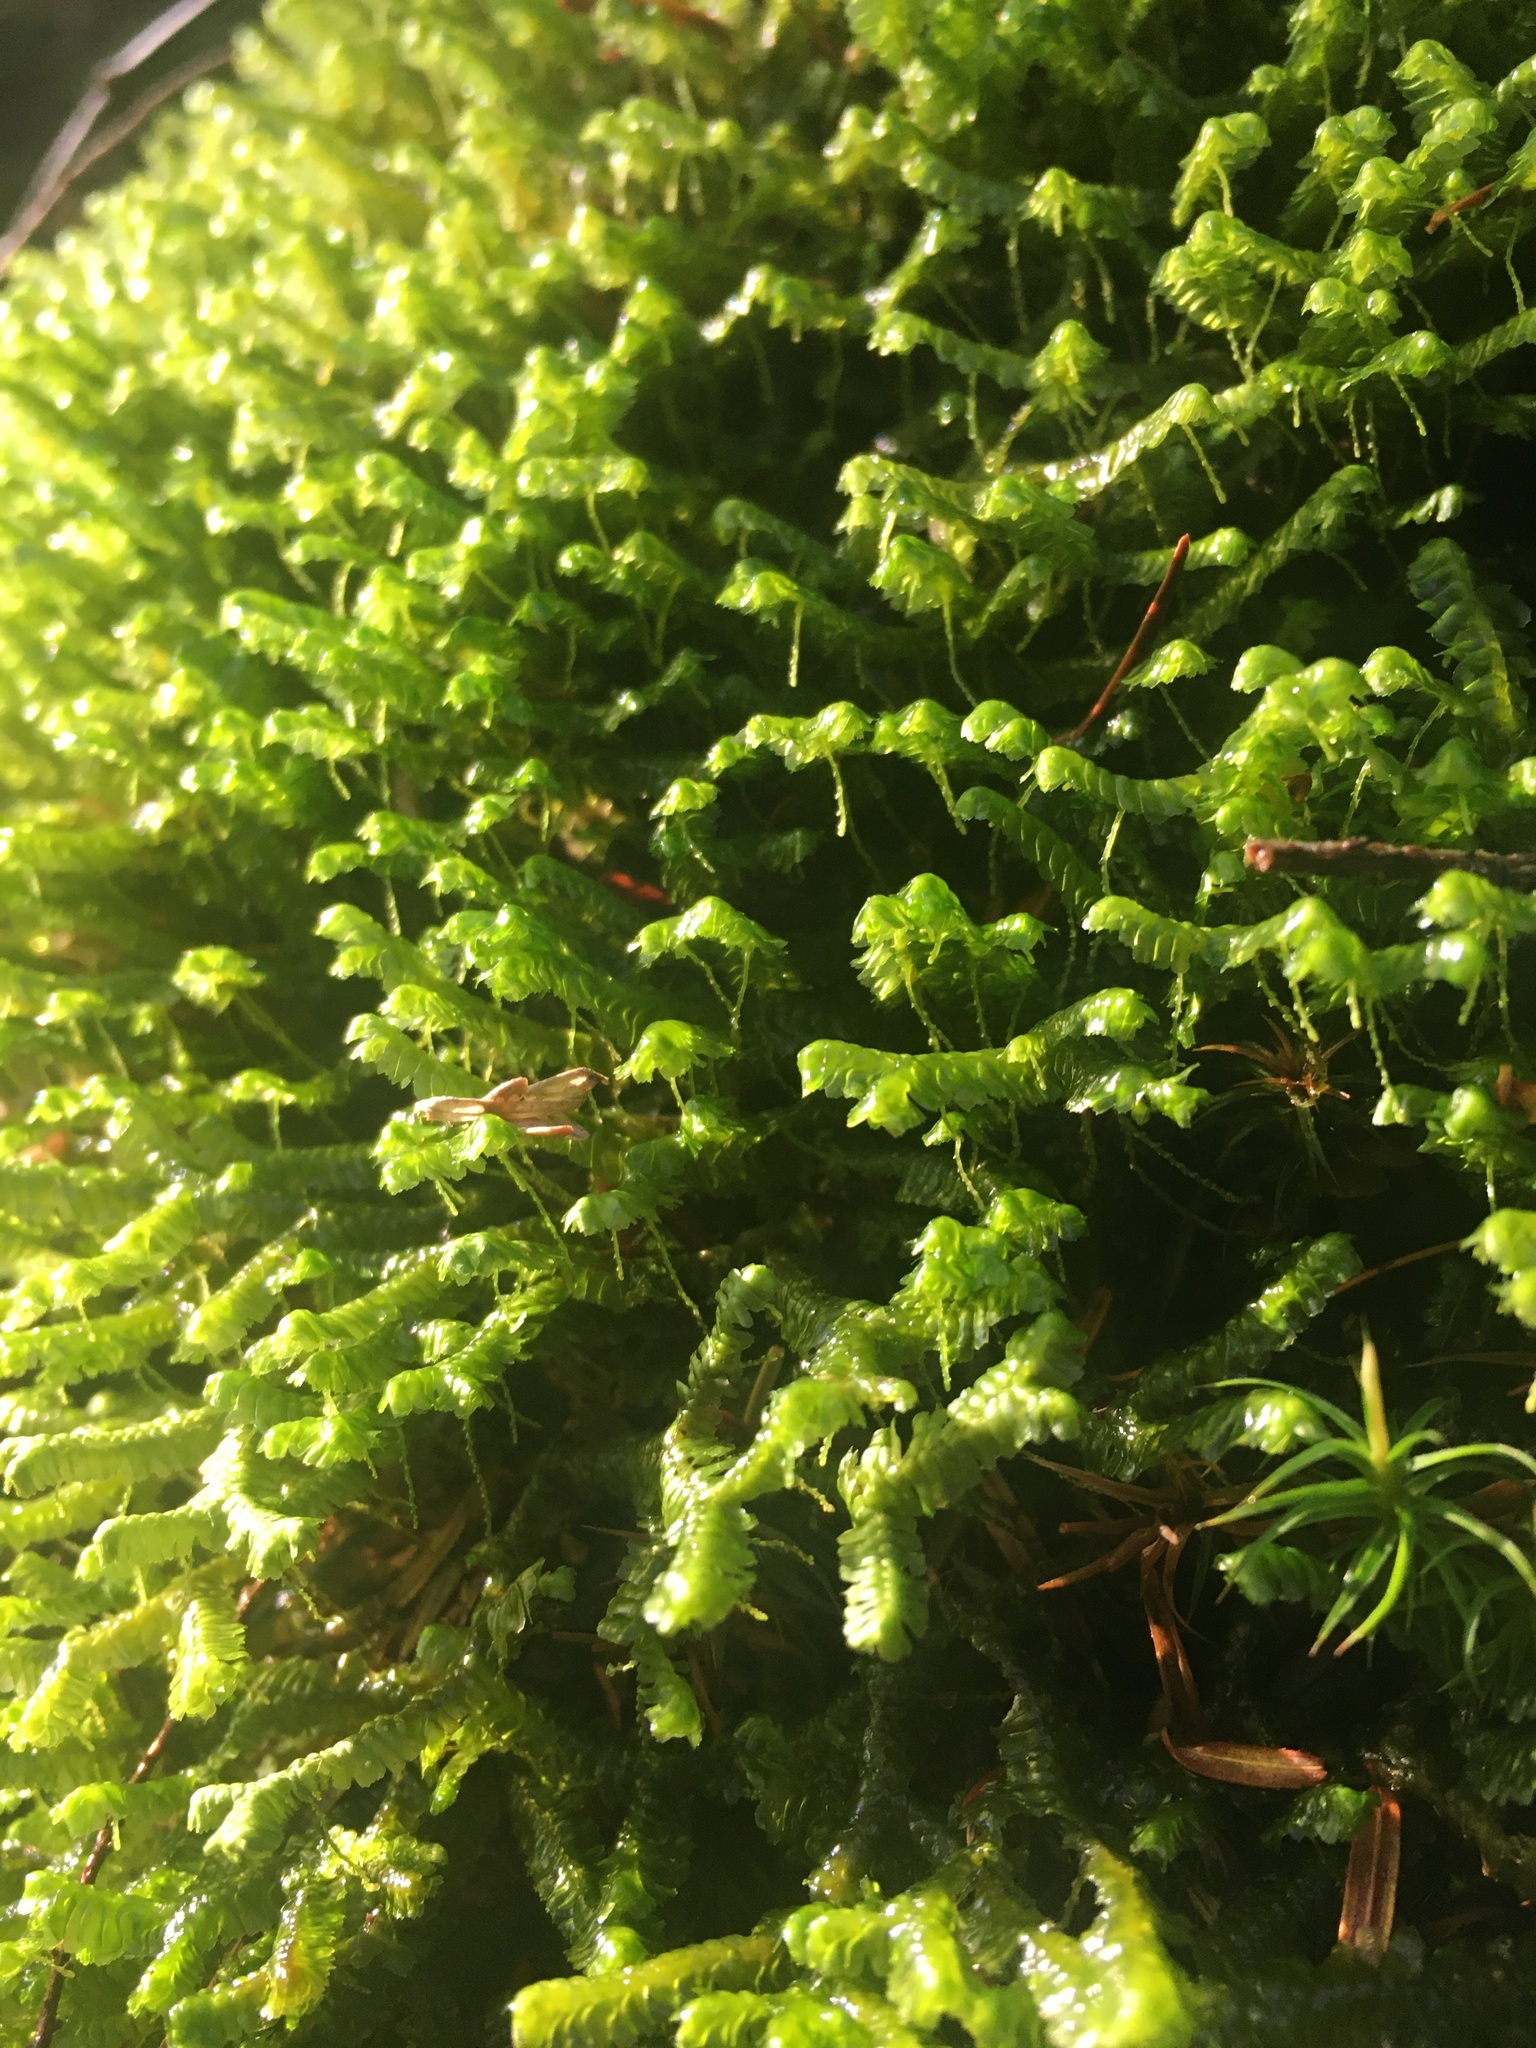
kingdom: Plantae
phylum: Marchantiophyta
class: Jungermanniopsida
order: Jungermanniales
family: Lepidoziaceae
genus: Bazzania
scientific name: Bazzania trilobata
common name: Three-lobed whipwort
